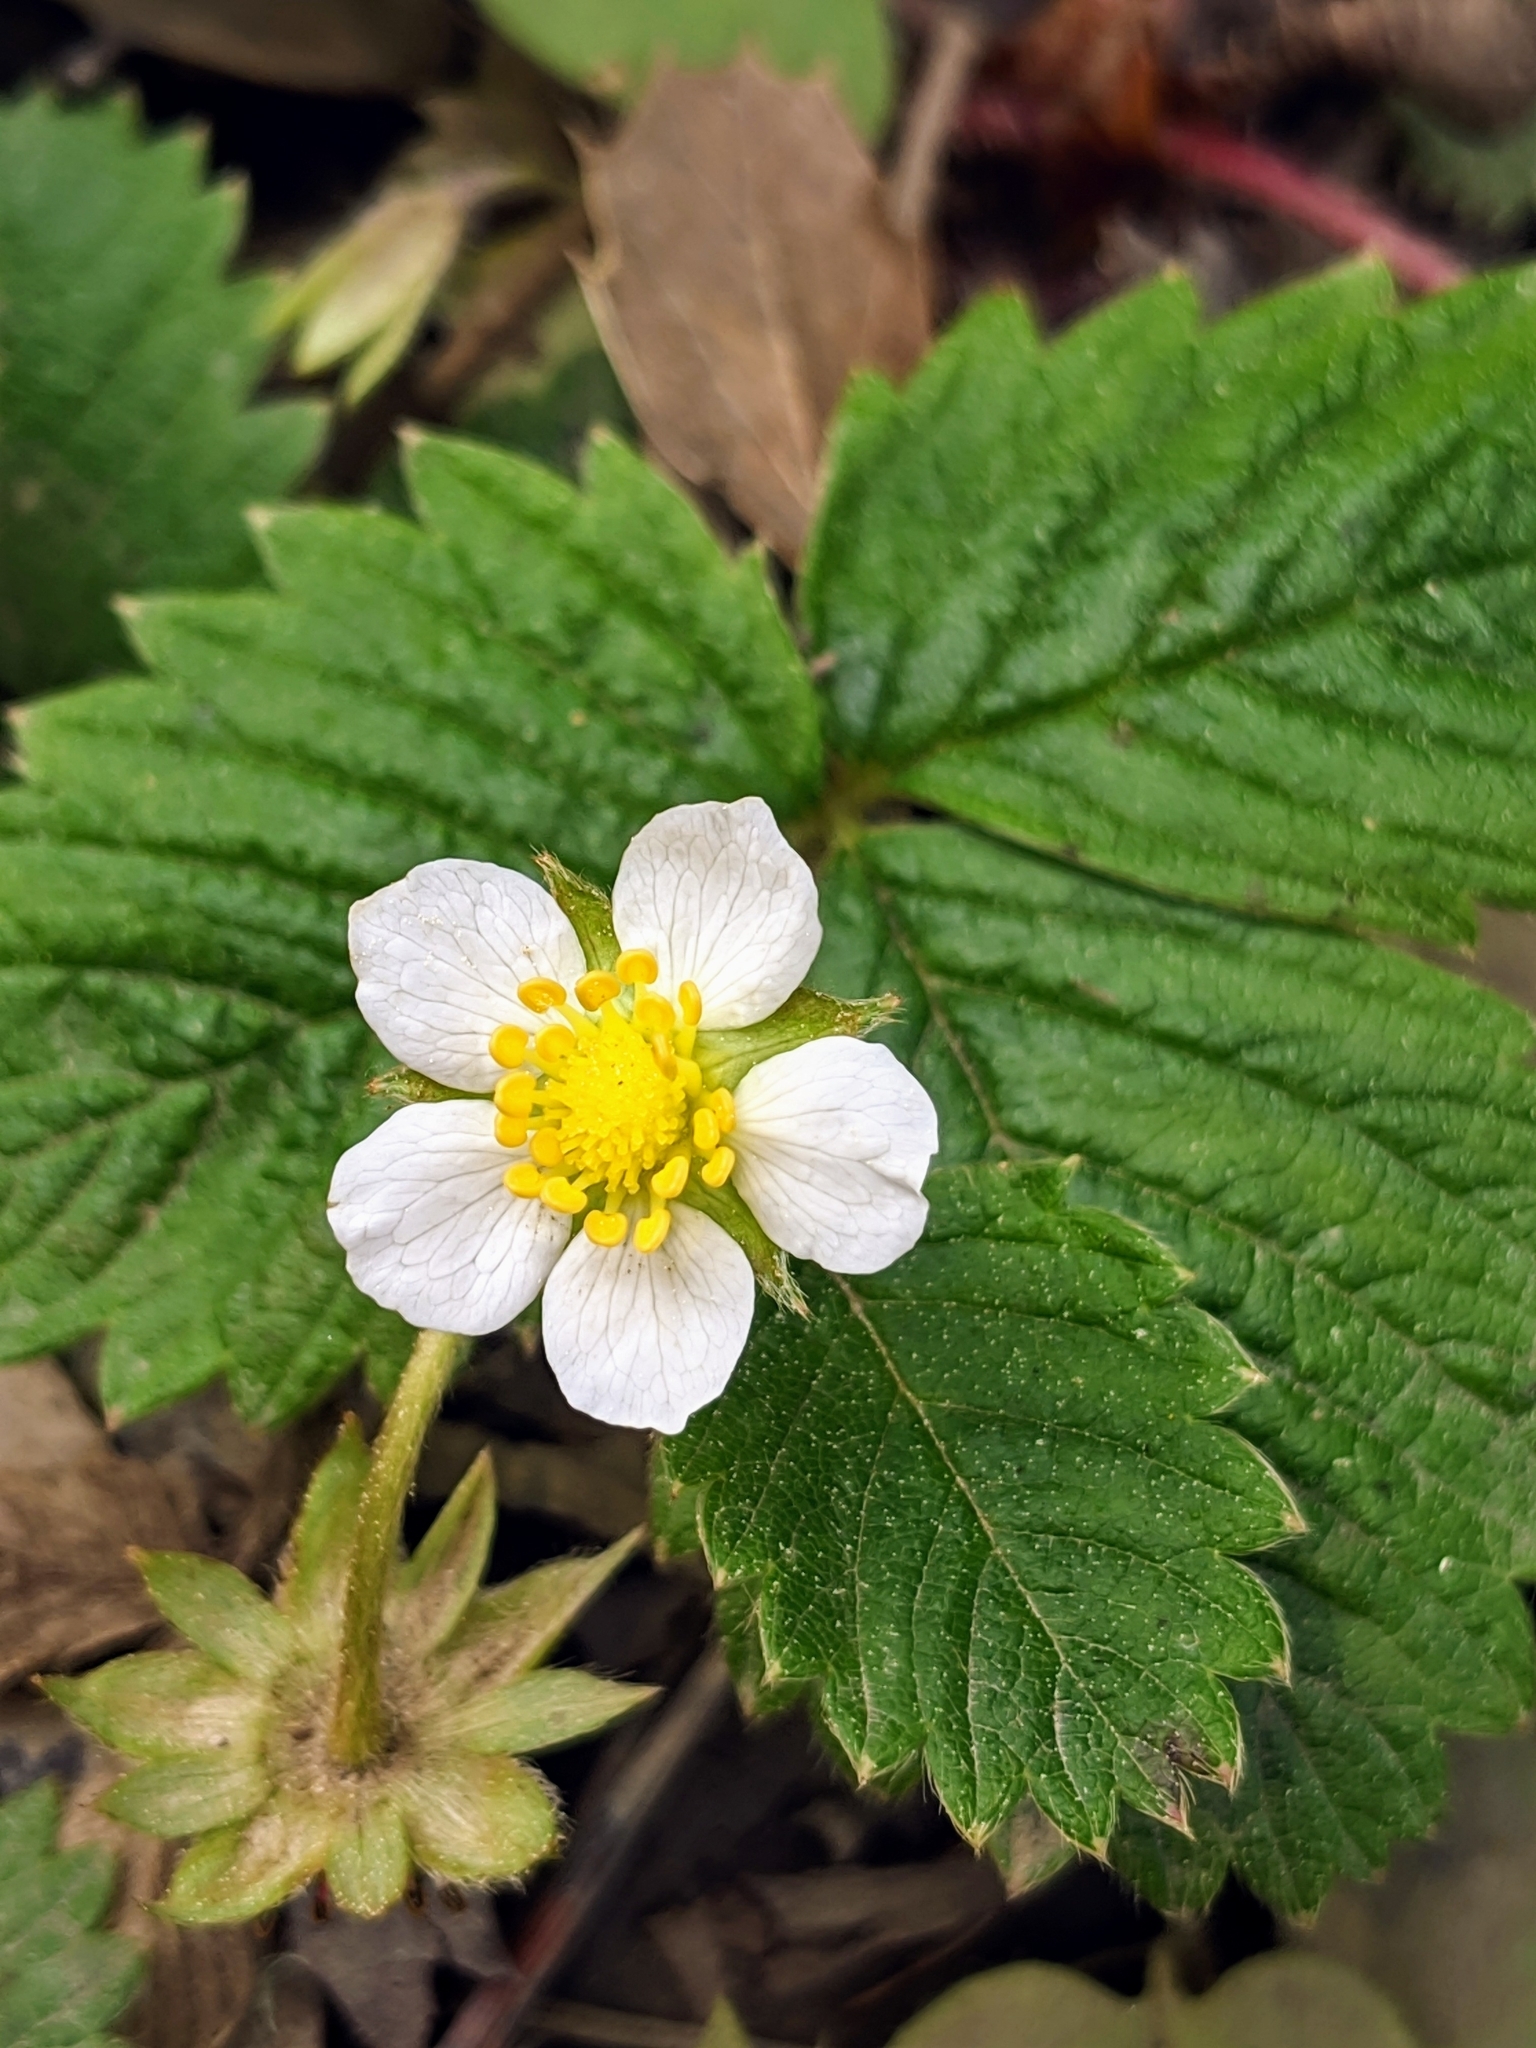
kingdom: Plantae
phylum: Tracheophyta
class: Magnoliopsida
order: Rosales
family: Rosaceae
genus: Fragaria
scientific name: Fragaria vesca
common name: Wild strawberry
